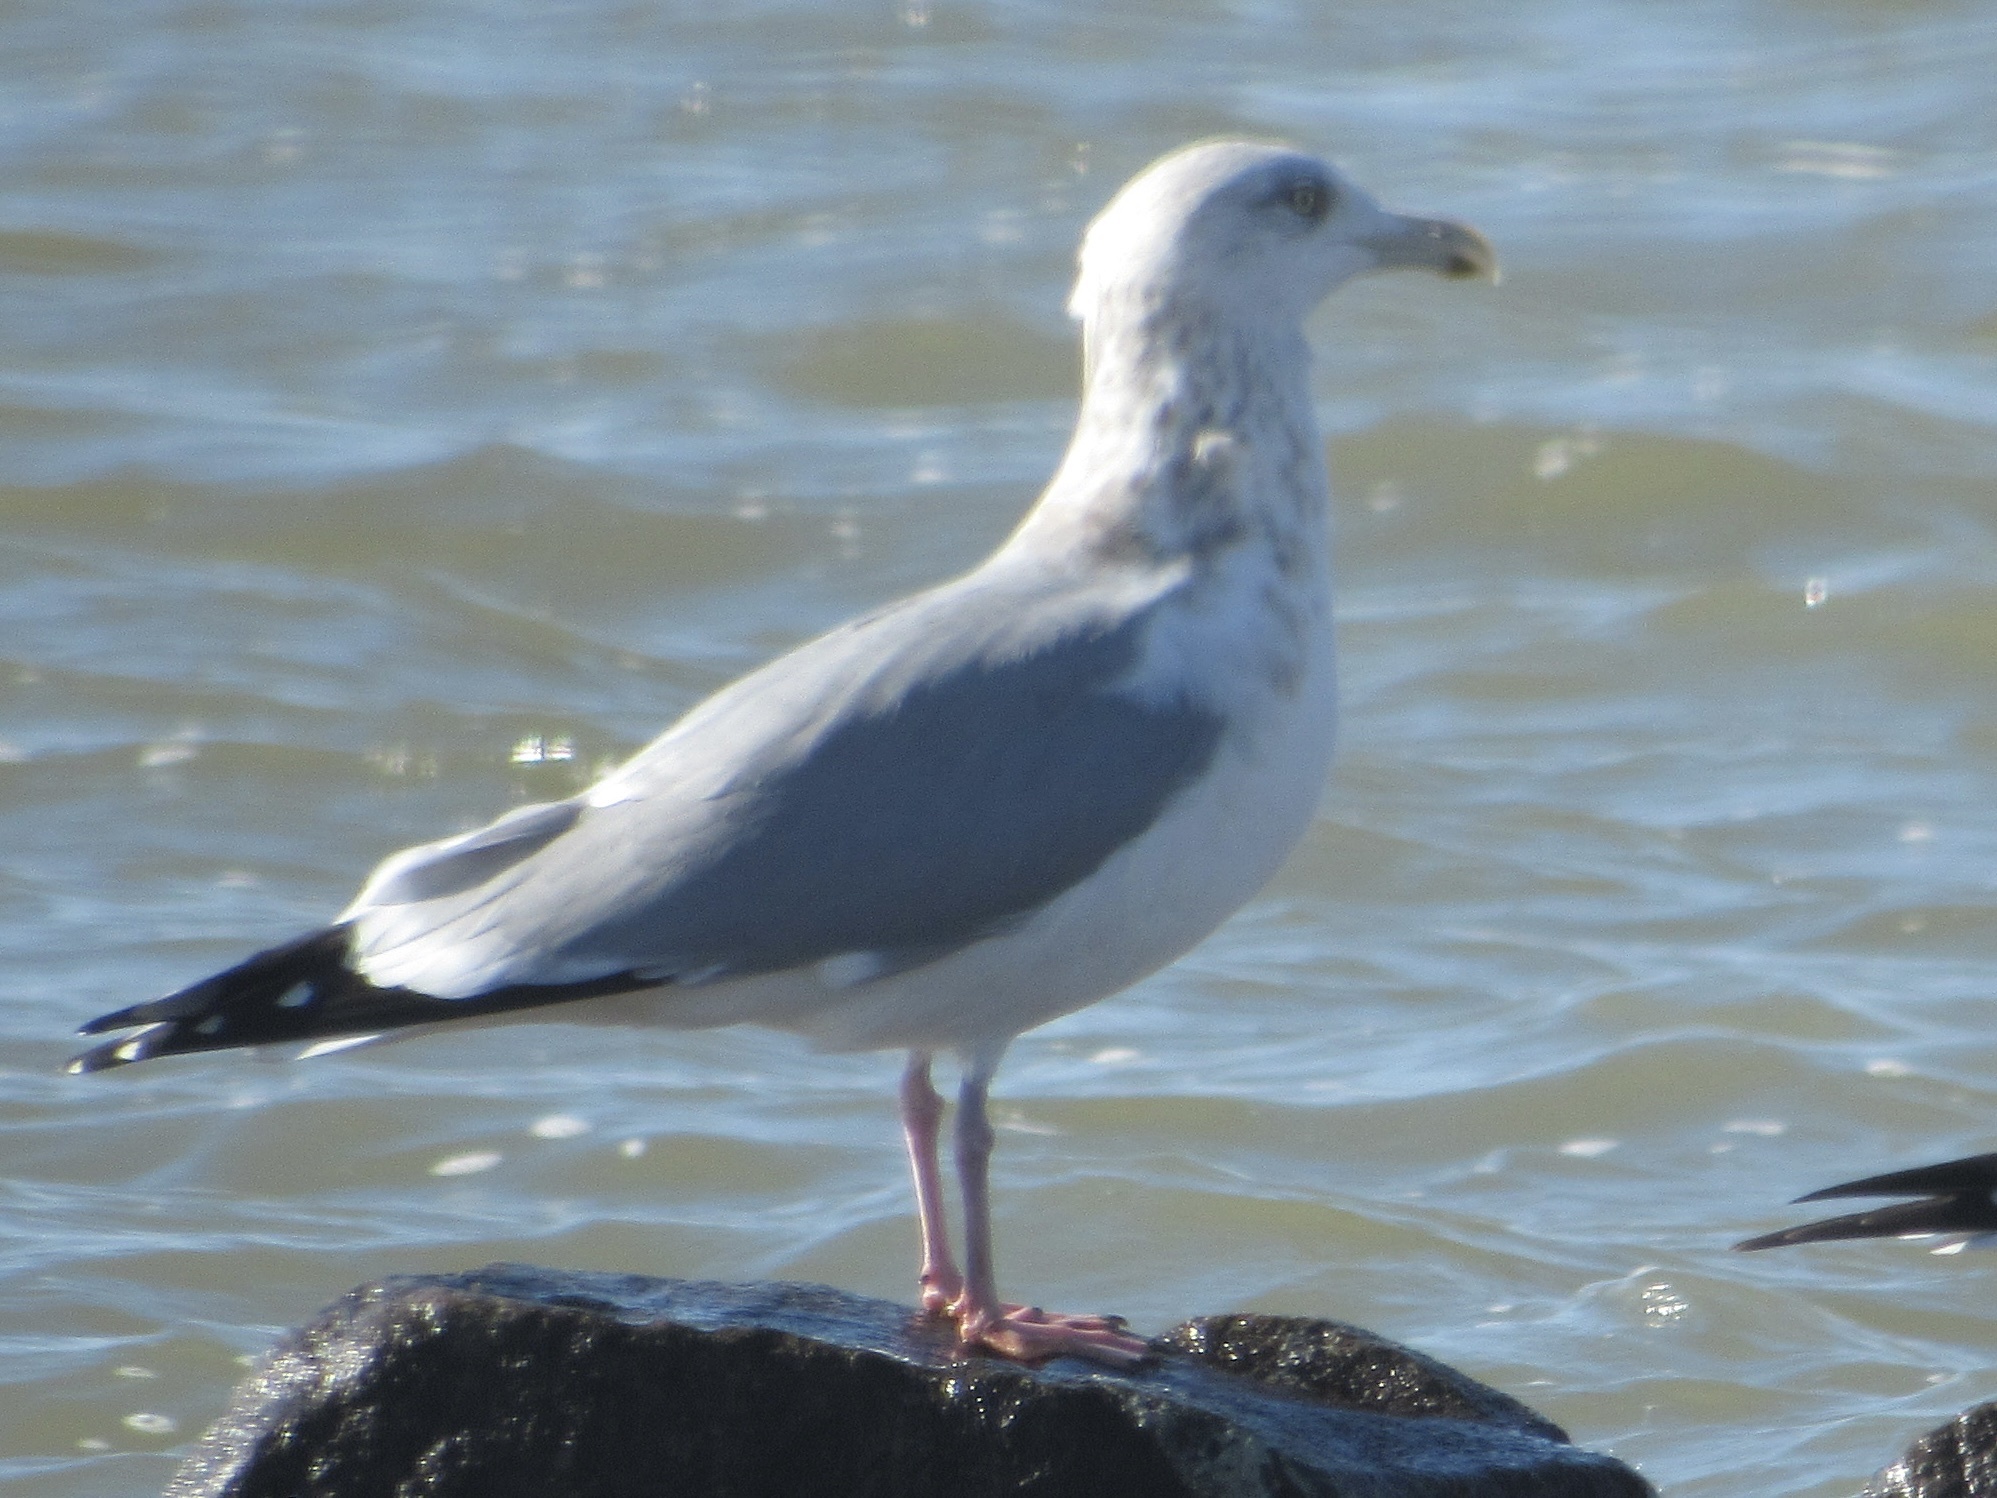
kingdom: Animalia
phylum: Chordata
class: Aves
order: Charadriiformes
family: Laridae
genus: Larus
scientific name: Larus argentatus
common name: Herring gull
